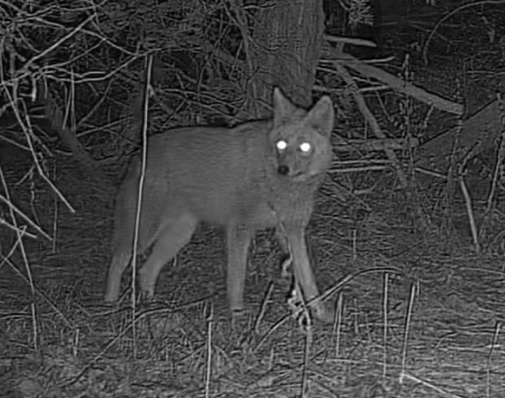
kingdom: Animalia
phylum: Chordata
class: Mammalia
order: Carnivora
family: Canidae
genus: Canis
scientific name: Canis latrans
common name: Coyote
